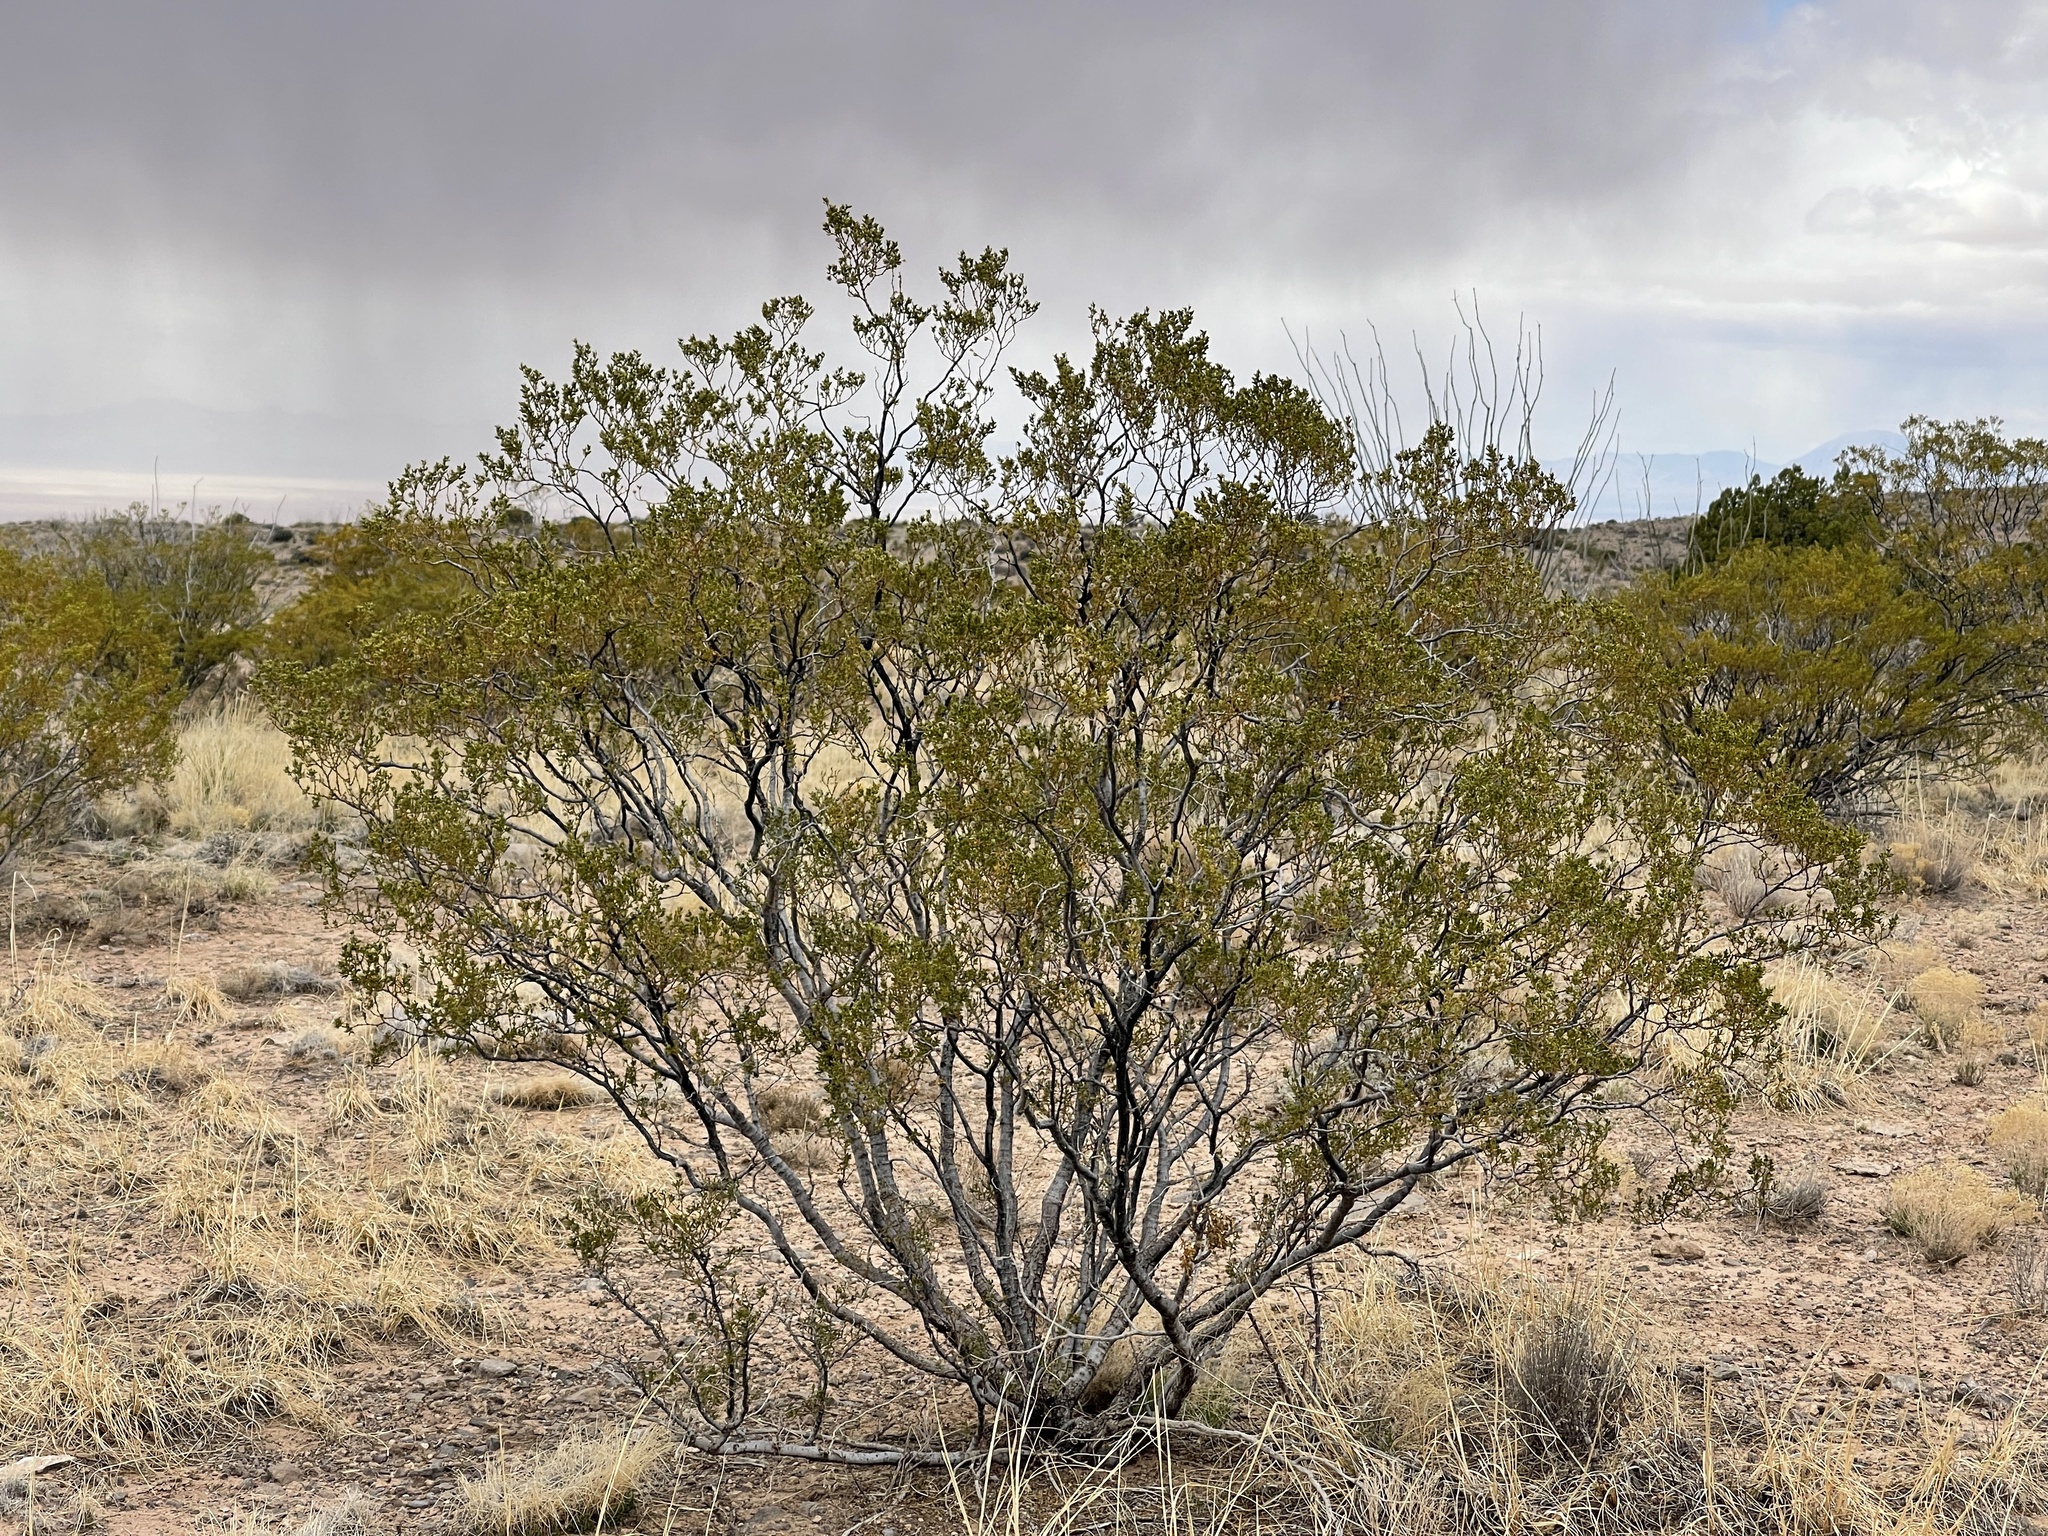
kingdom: Plantae
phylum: Tracheophyta
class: Magnoliopsida
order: Zygophyllales
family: Zygophyllaceae
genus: Larrea
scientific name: Larrea tridentata
